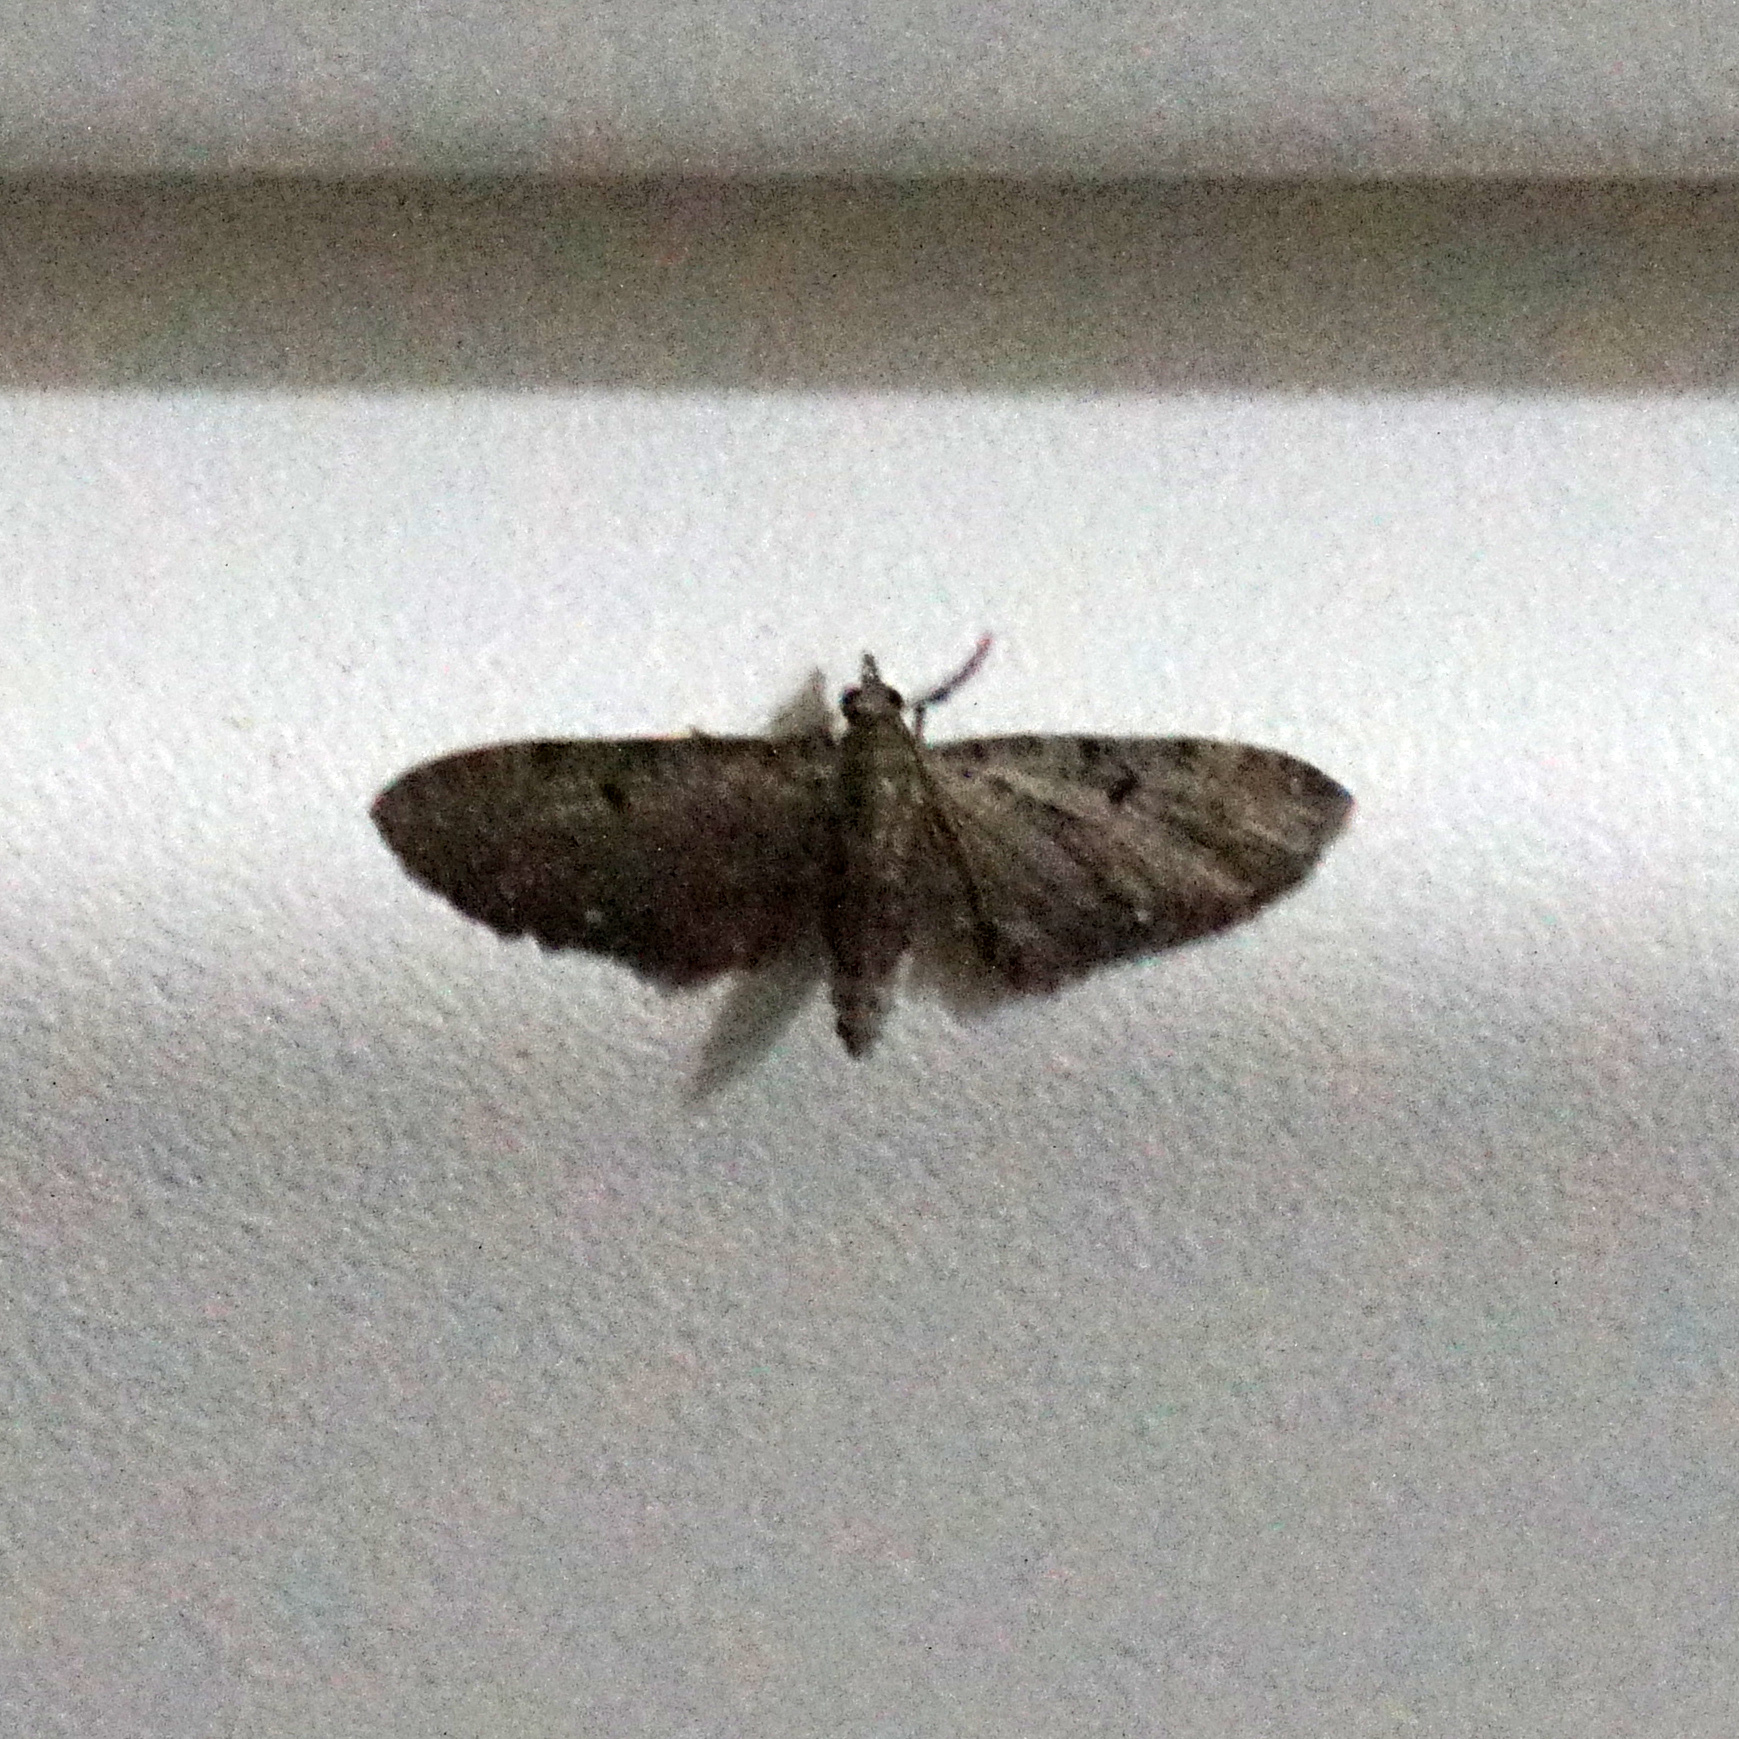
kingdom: Animalia
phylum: Arthropoda
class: Insecta
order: Lepidoptera
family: Geometridae
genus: Eupithecia
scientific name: Eupithecia miserulata
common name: Common eupithecia
